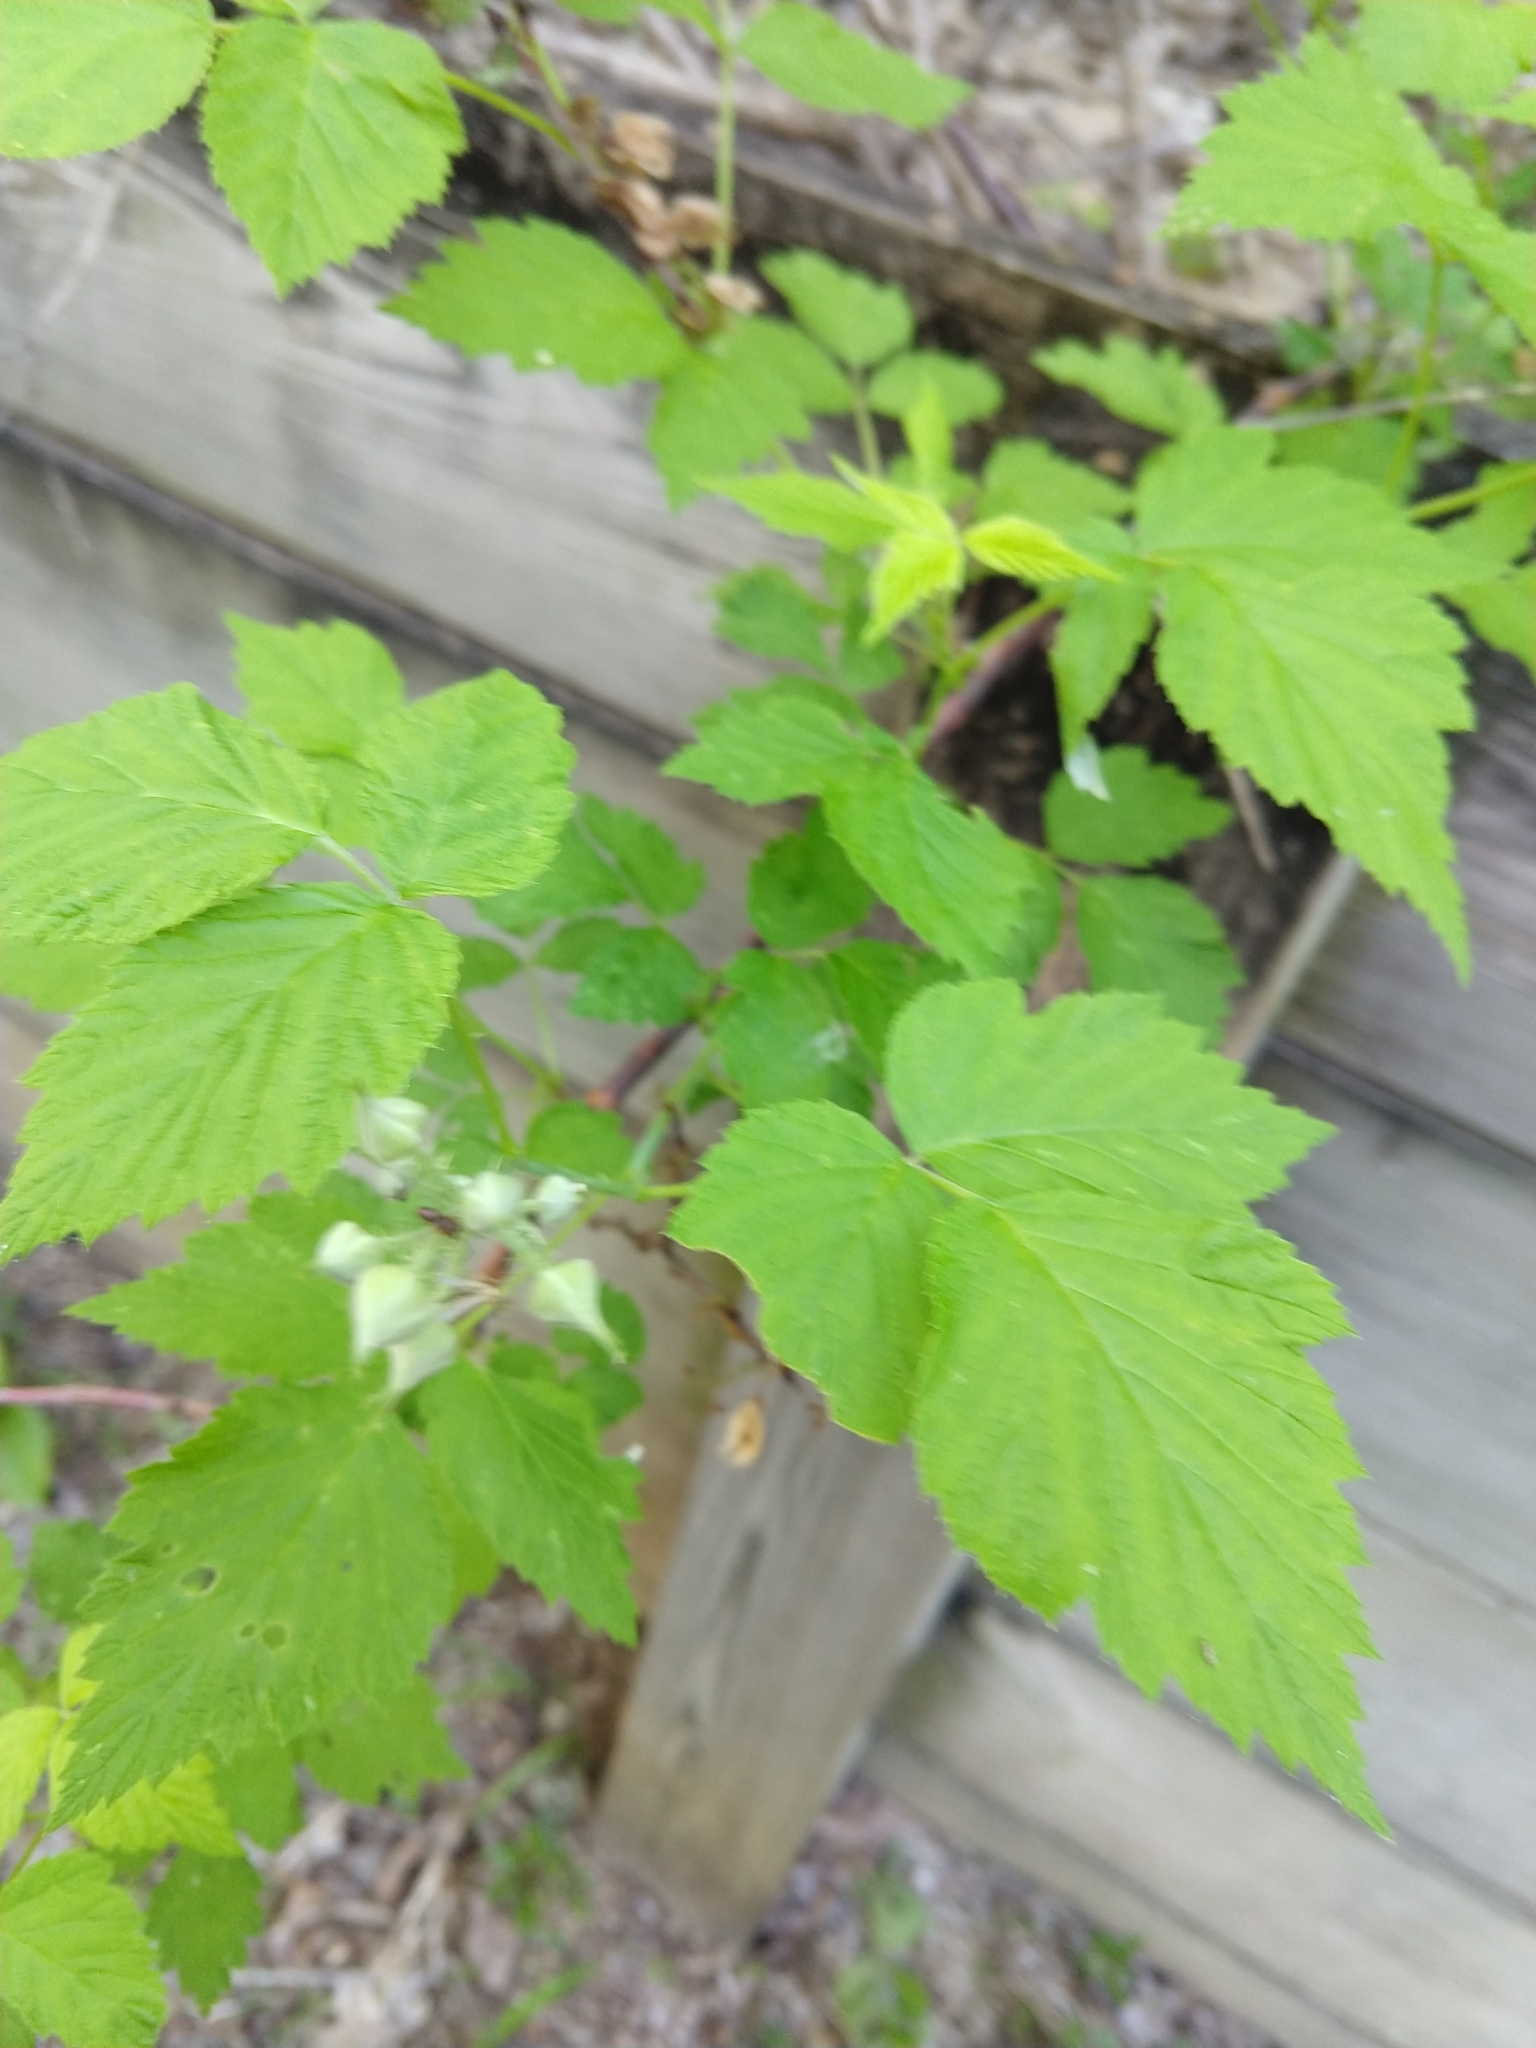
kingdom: Plantae
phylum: Tracheophyta
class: Magnoliopsida
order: Rosales
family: Rosaceae
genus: Rubus
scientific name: Rubus occidentalis
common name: Black raspberry
